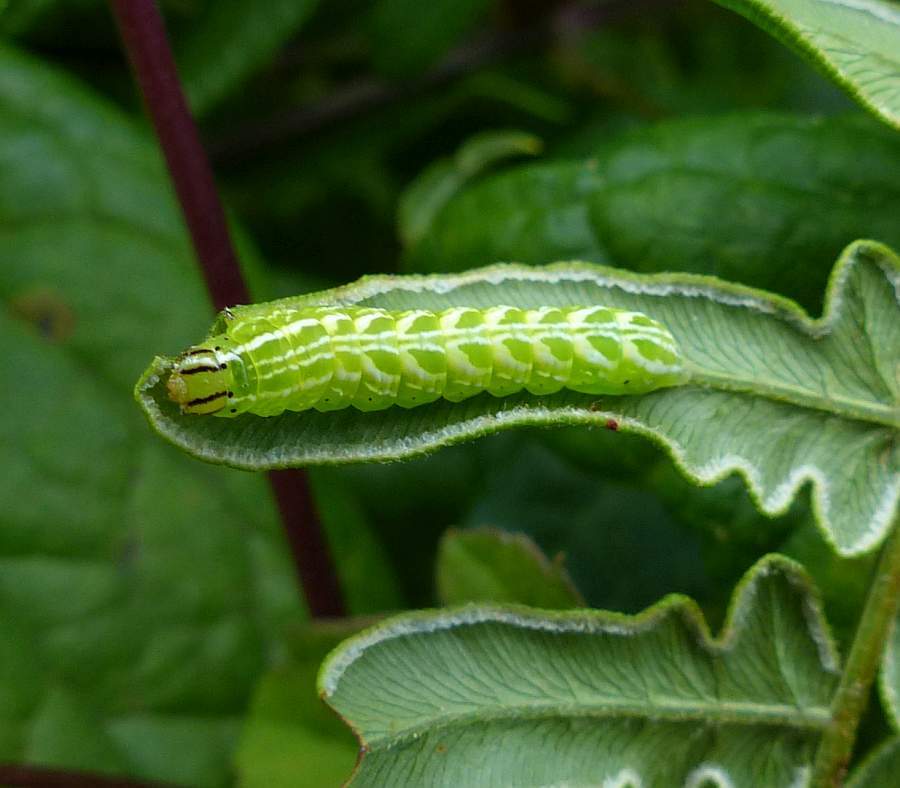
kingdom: Animalia
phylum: Arthropoda
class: Insecta
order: Lepidoptera
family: Noctuidae
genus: Callopistria
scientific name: Callopistria cordata
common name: Silver-spotted fern moth
